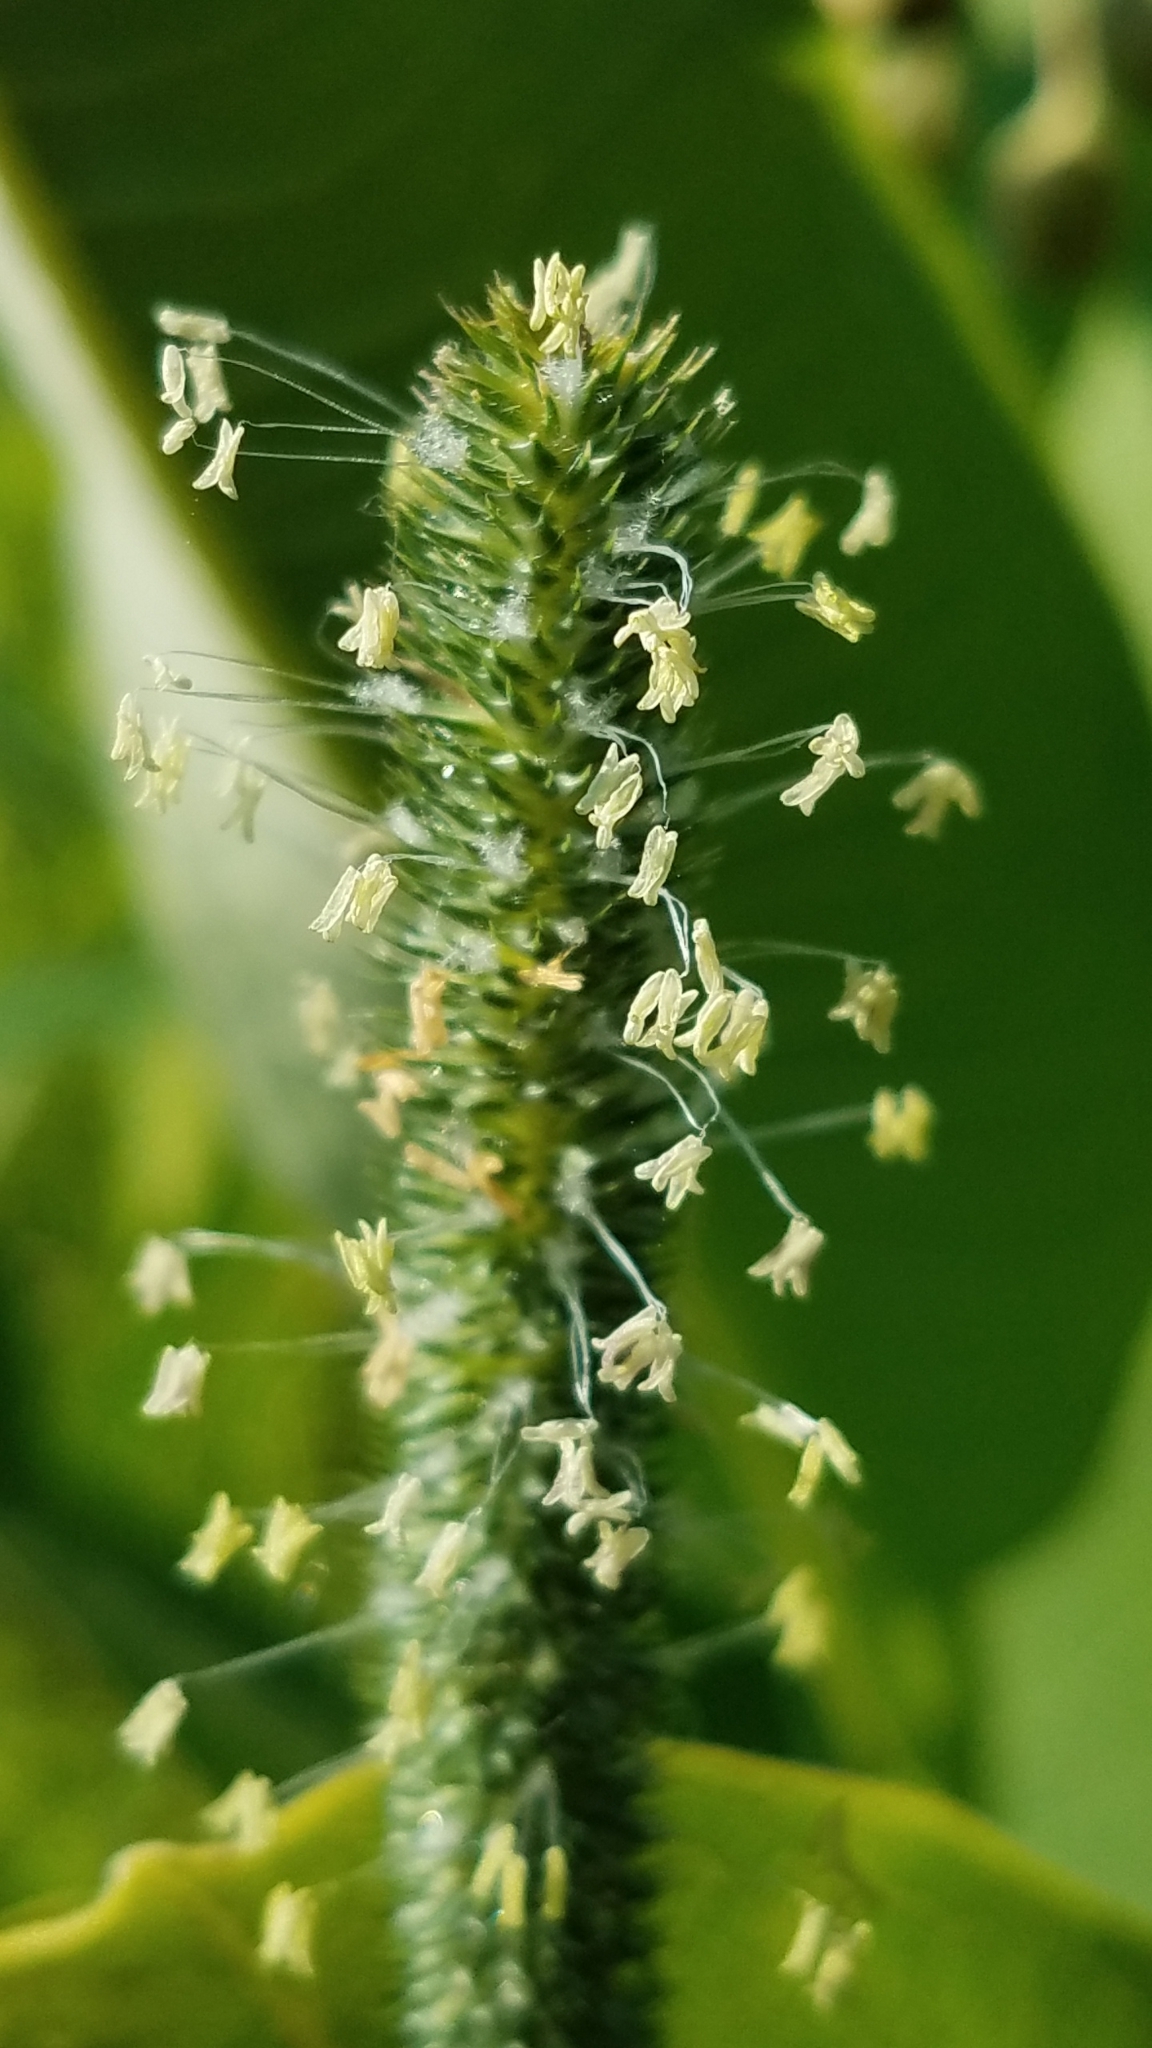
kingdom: Plantae
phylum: Tracheophyta
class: Liliopsida
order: Poales
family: Poaceae
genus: Phleum
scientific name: Phleum pratense
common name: Timothy grass
